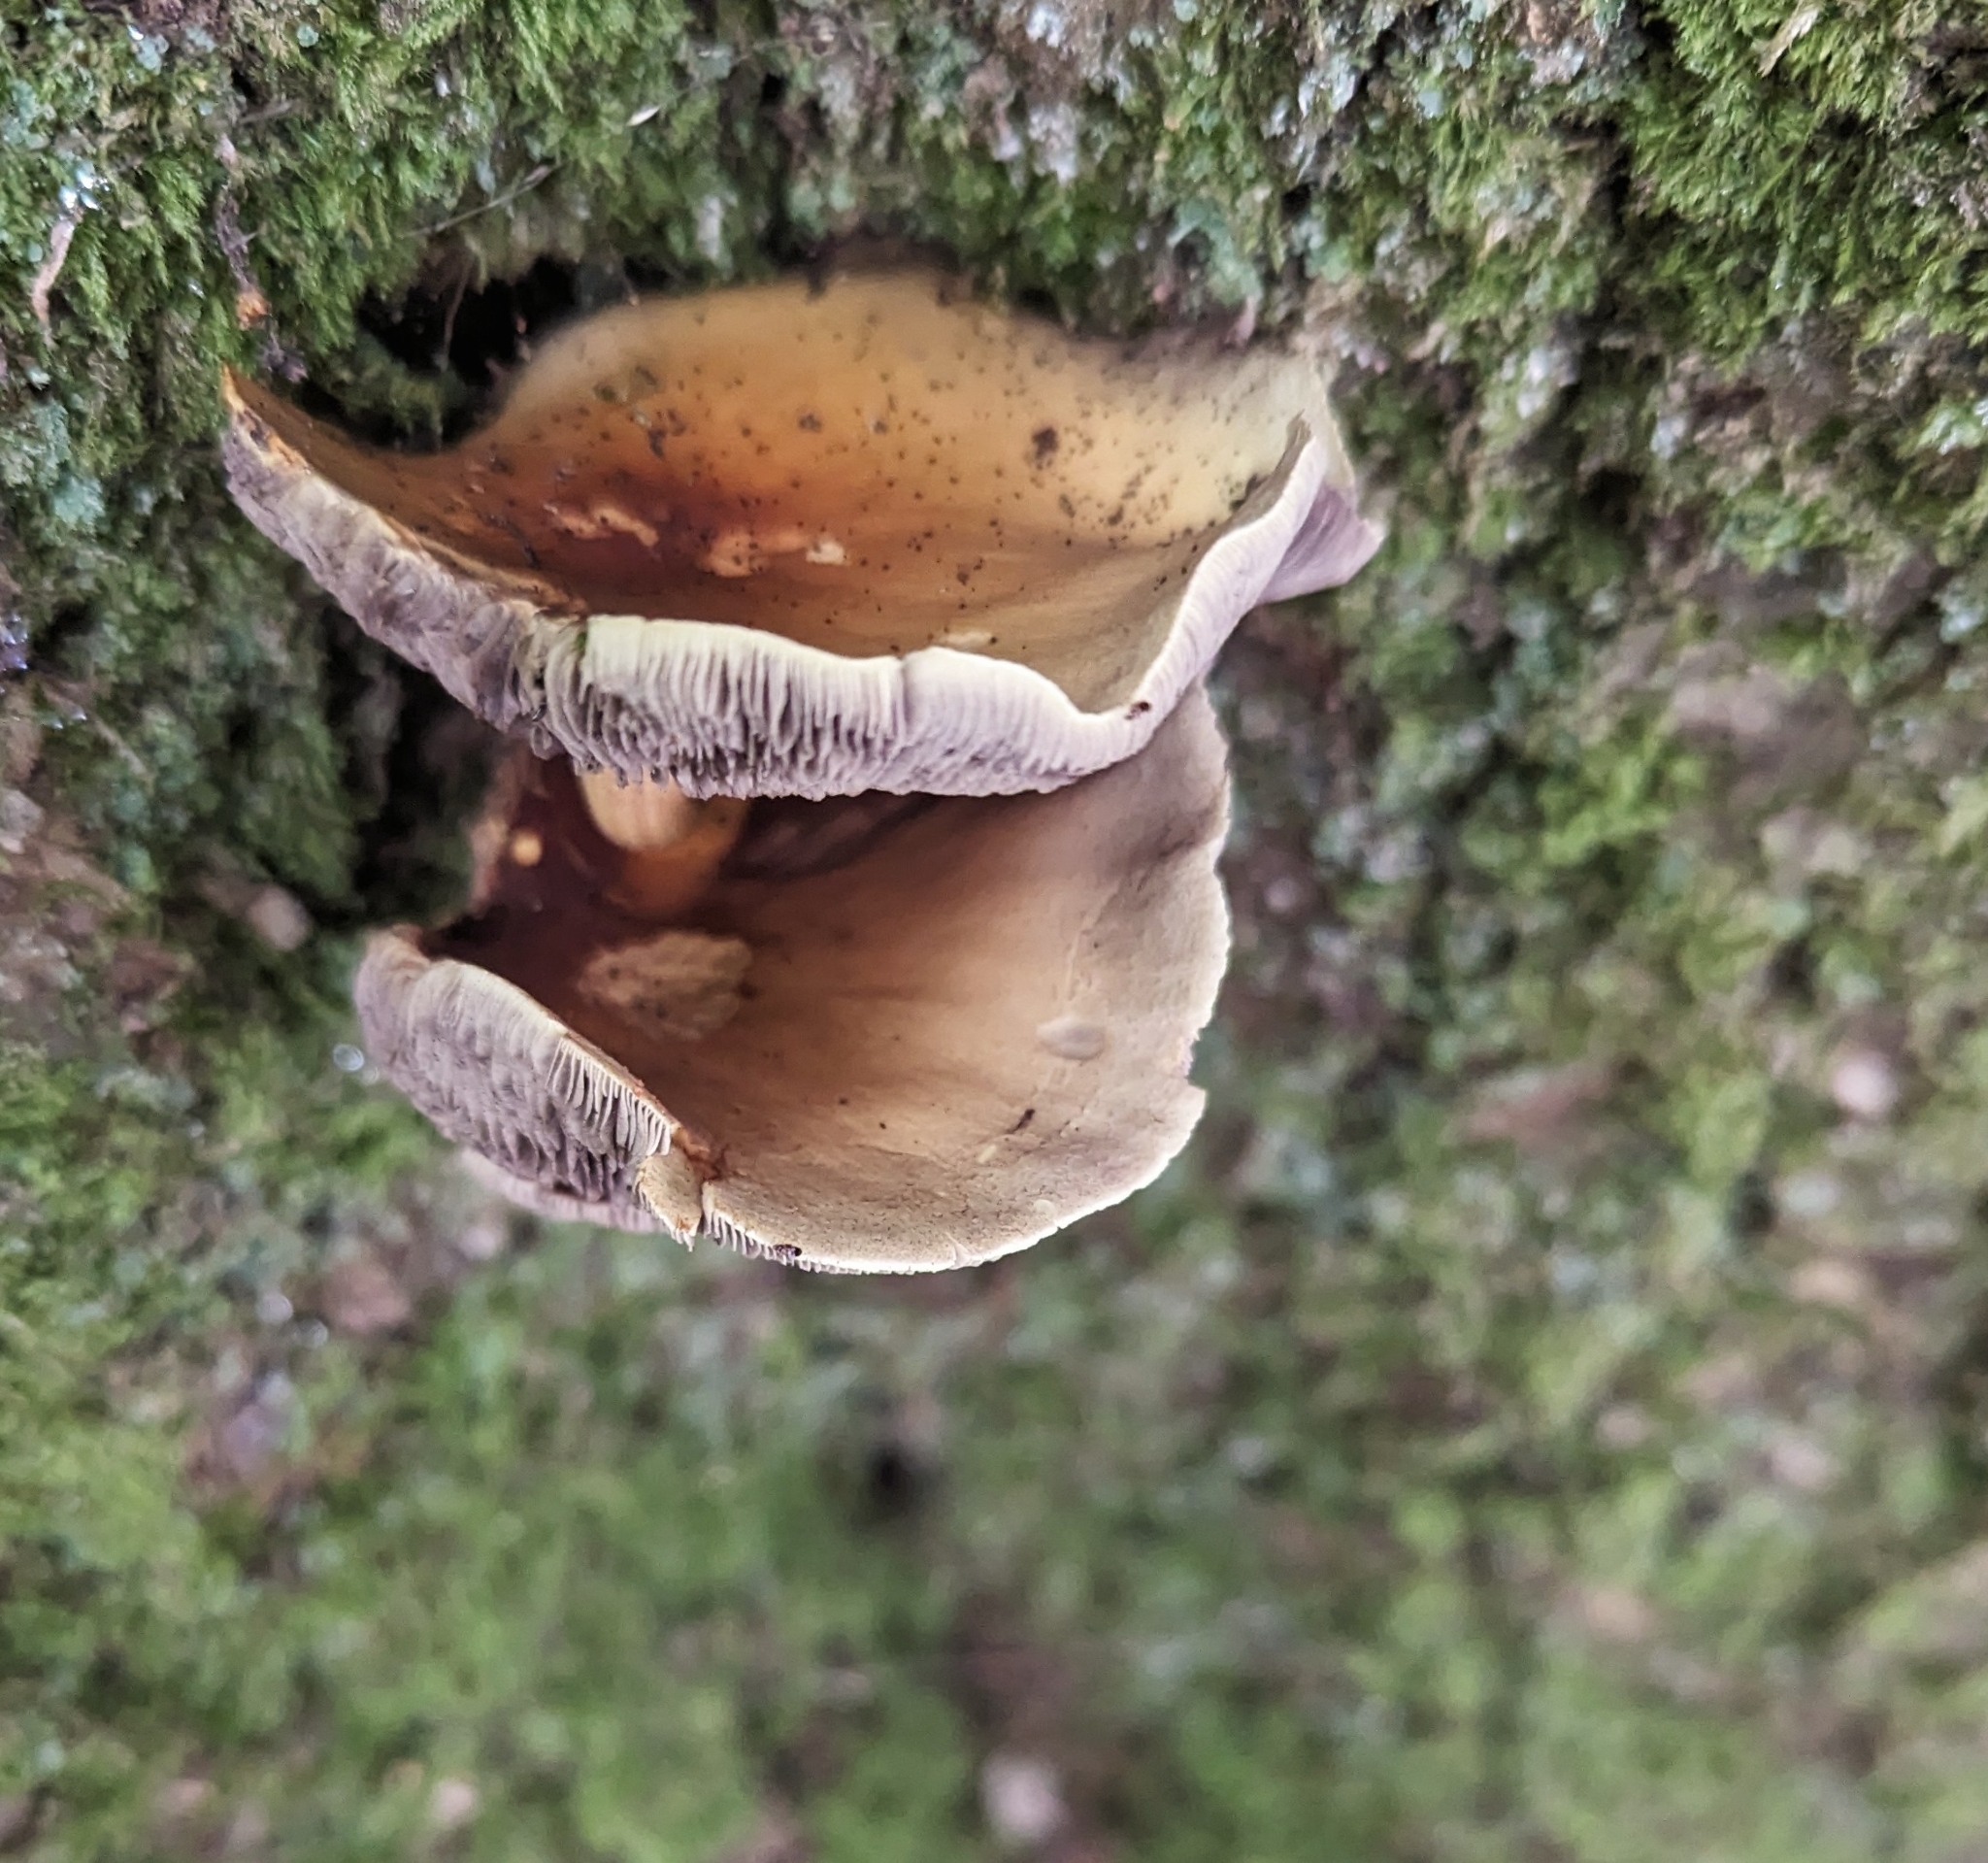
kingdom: Fungi
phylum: Basidiomycota
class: Agaricomycetes
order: Agaricales
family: Strophariaceae
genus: Hypholoma
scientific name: Hypholoma fasciculare
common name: Sulphur tuft
